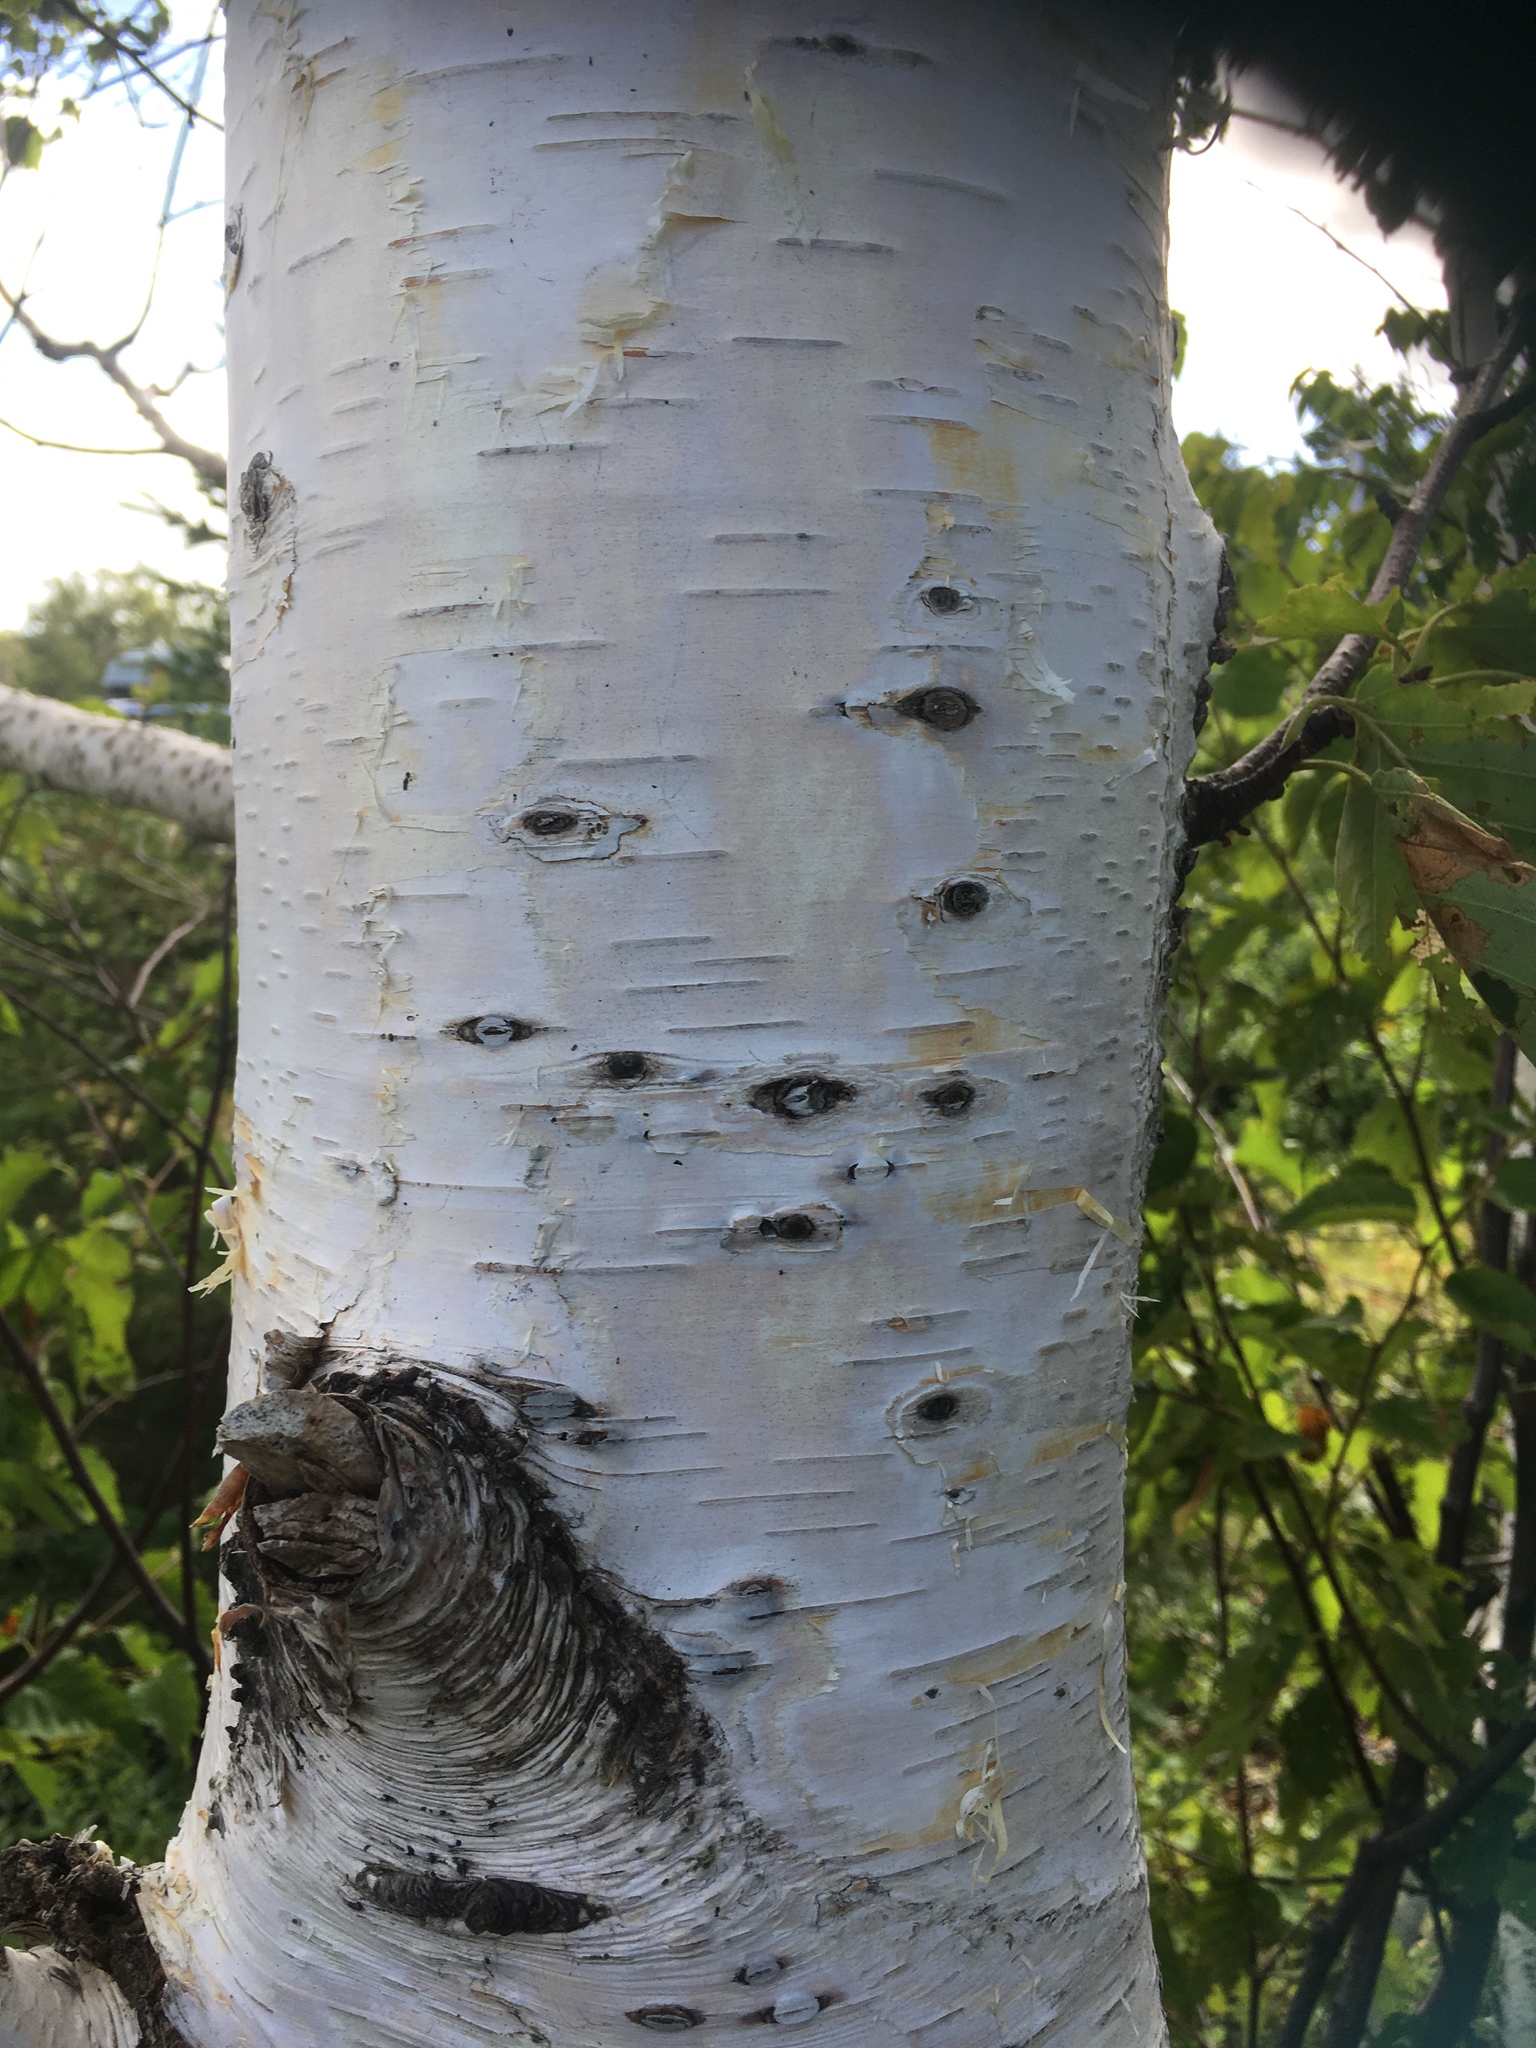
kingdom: Plantae
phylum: Tracheophyta
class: Magnoliopsida
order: Fagales
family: Betulaceae
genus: Betula
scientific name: Betula papyrifera
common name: Paper birch
